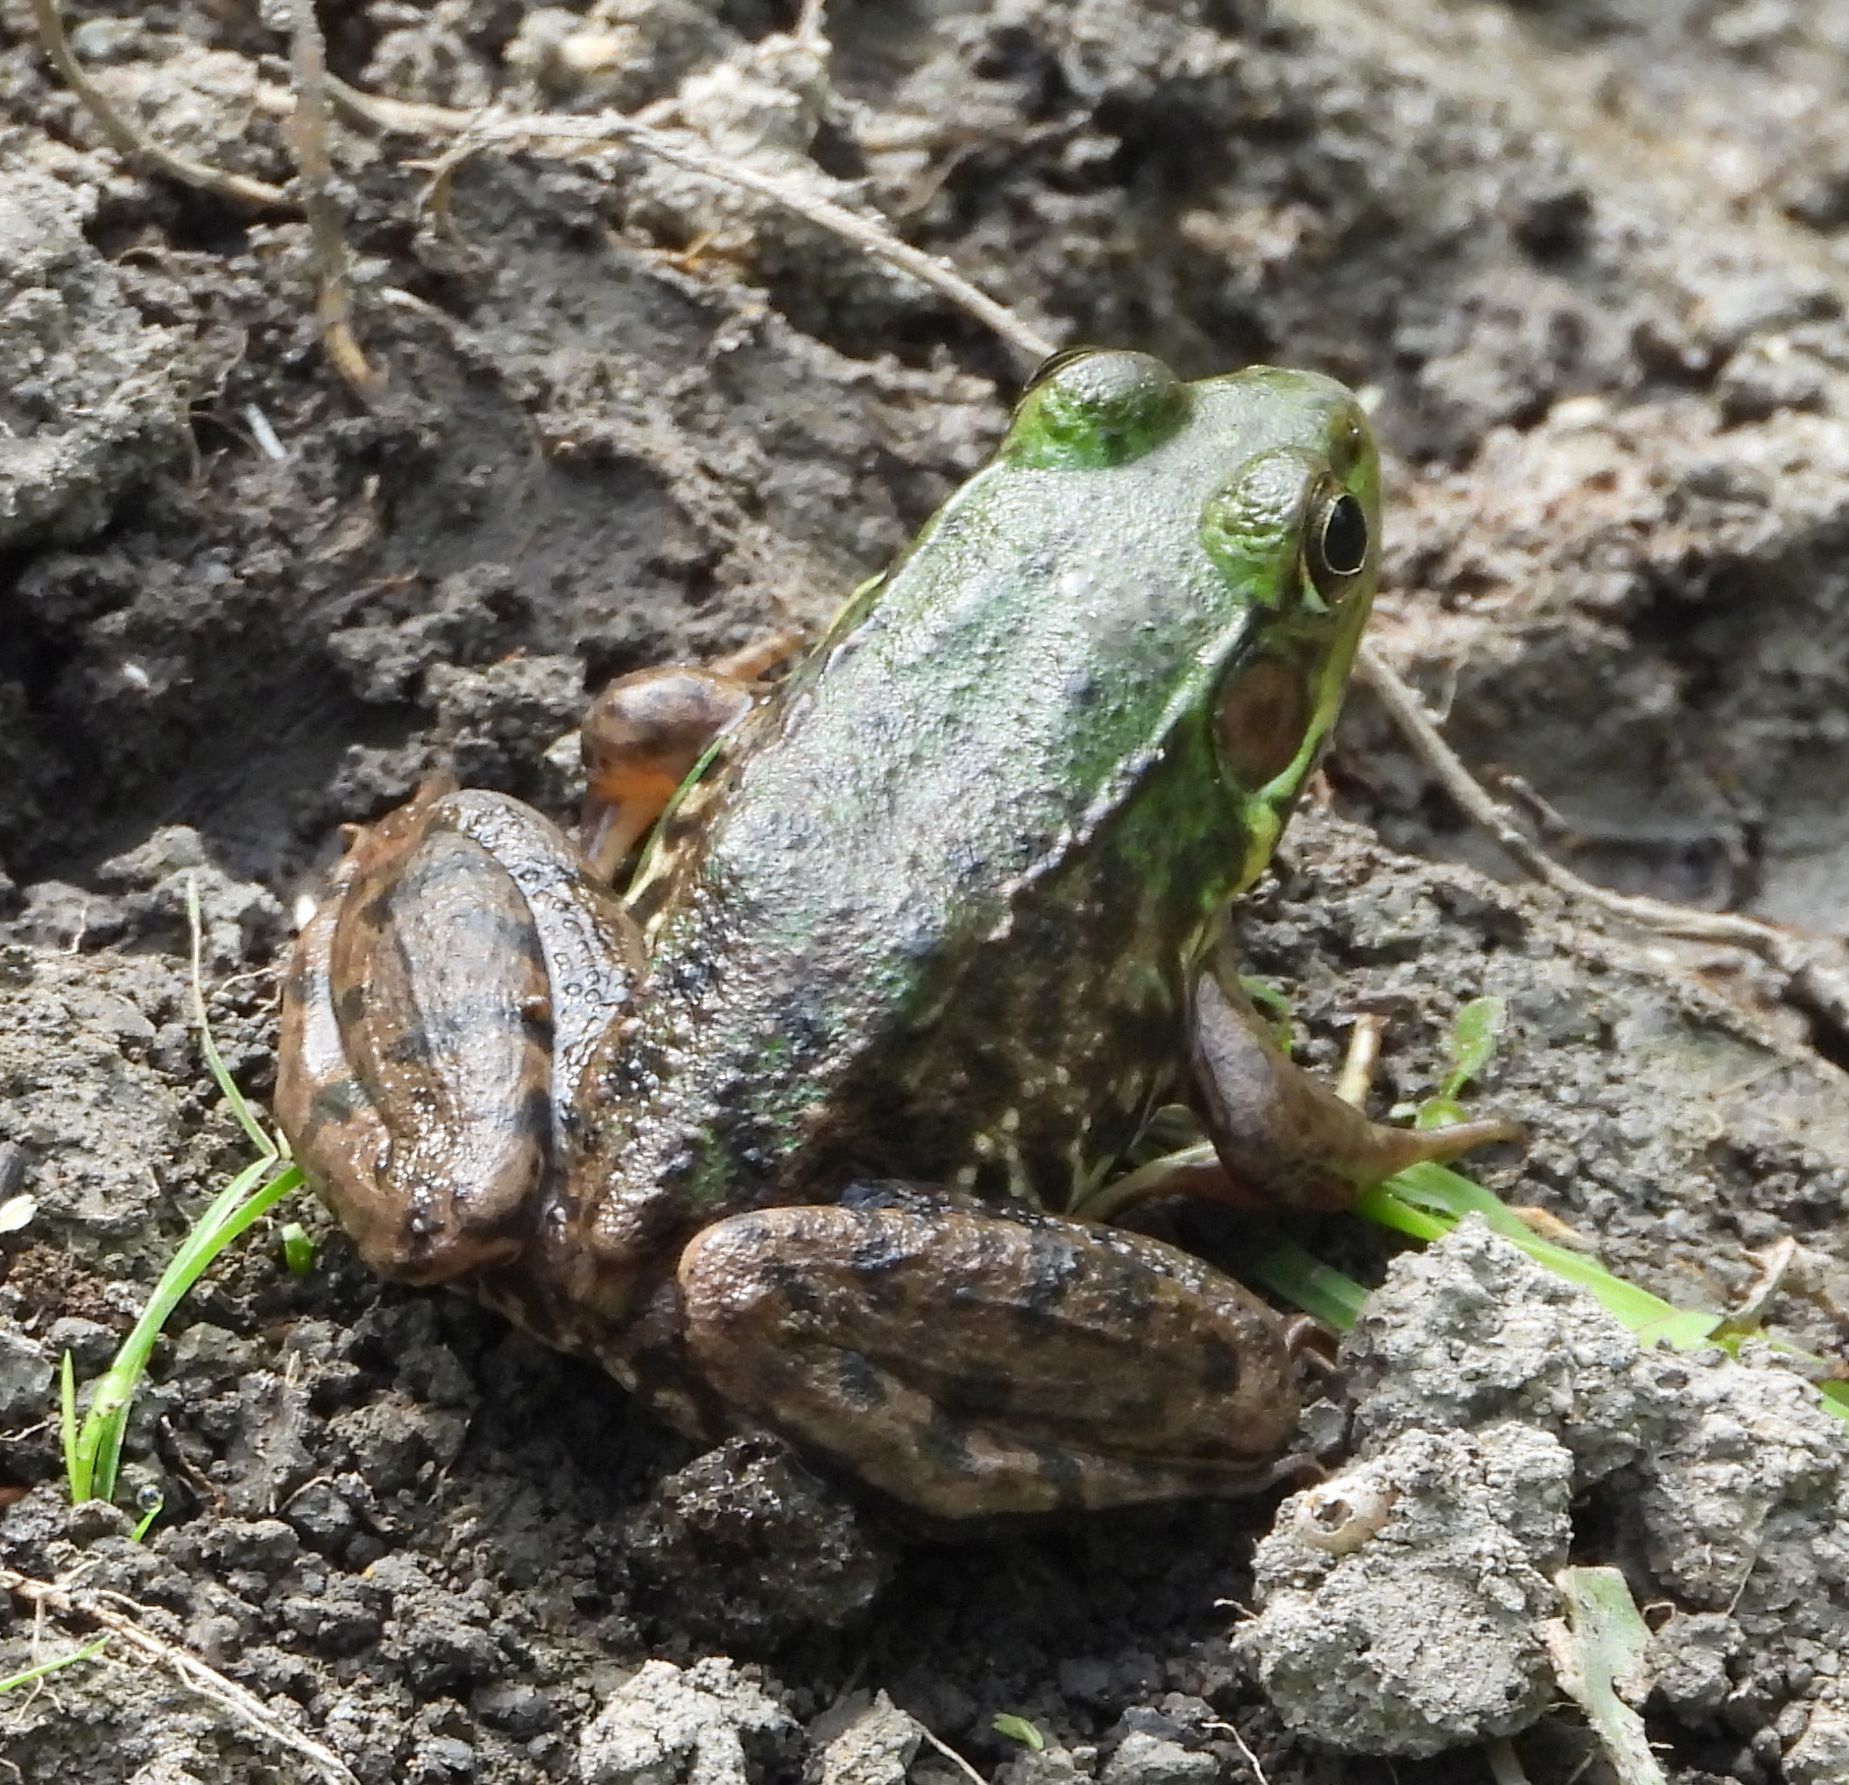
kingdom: Animalia
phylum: Chordata
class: Amphibia
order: Anura
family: Ranidae
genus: Lithobates
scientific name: Lithobates clamitans
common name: Green frog
